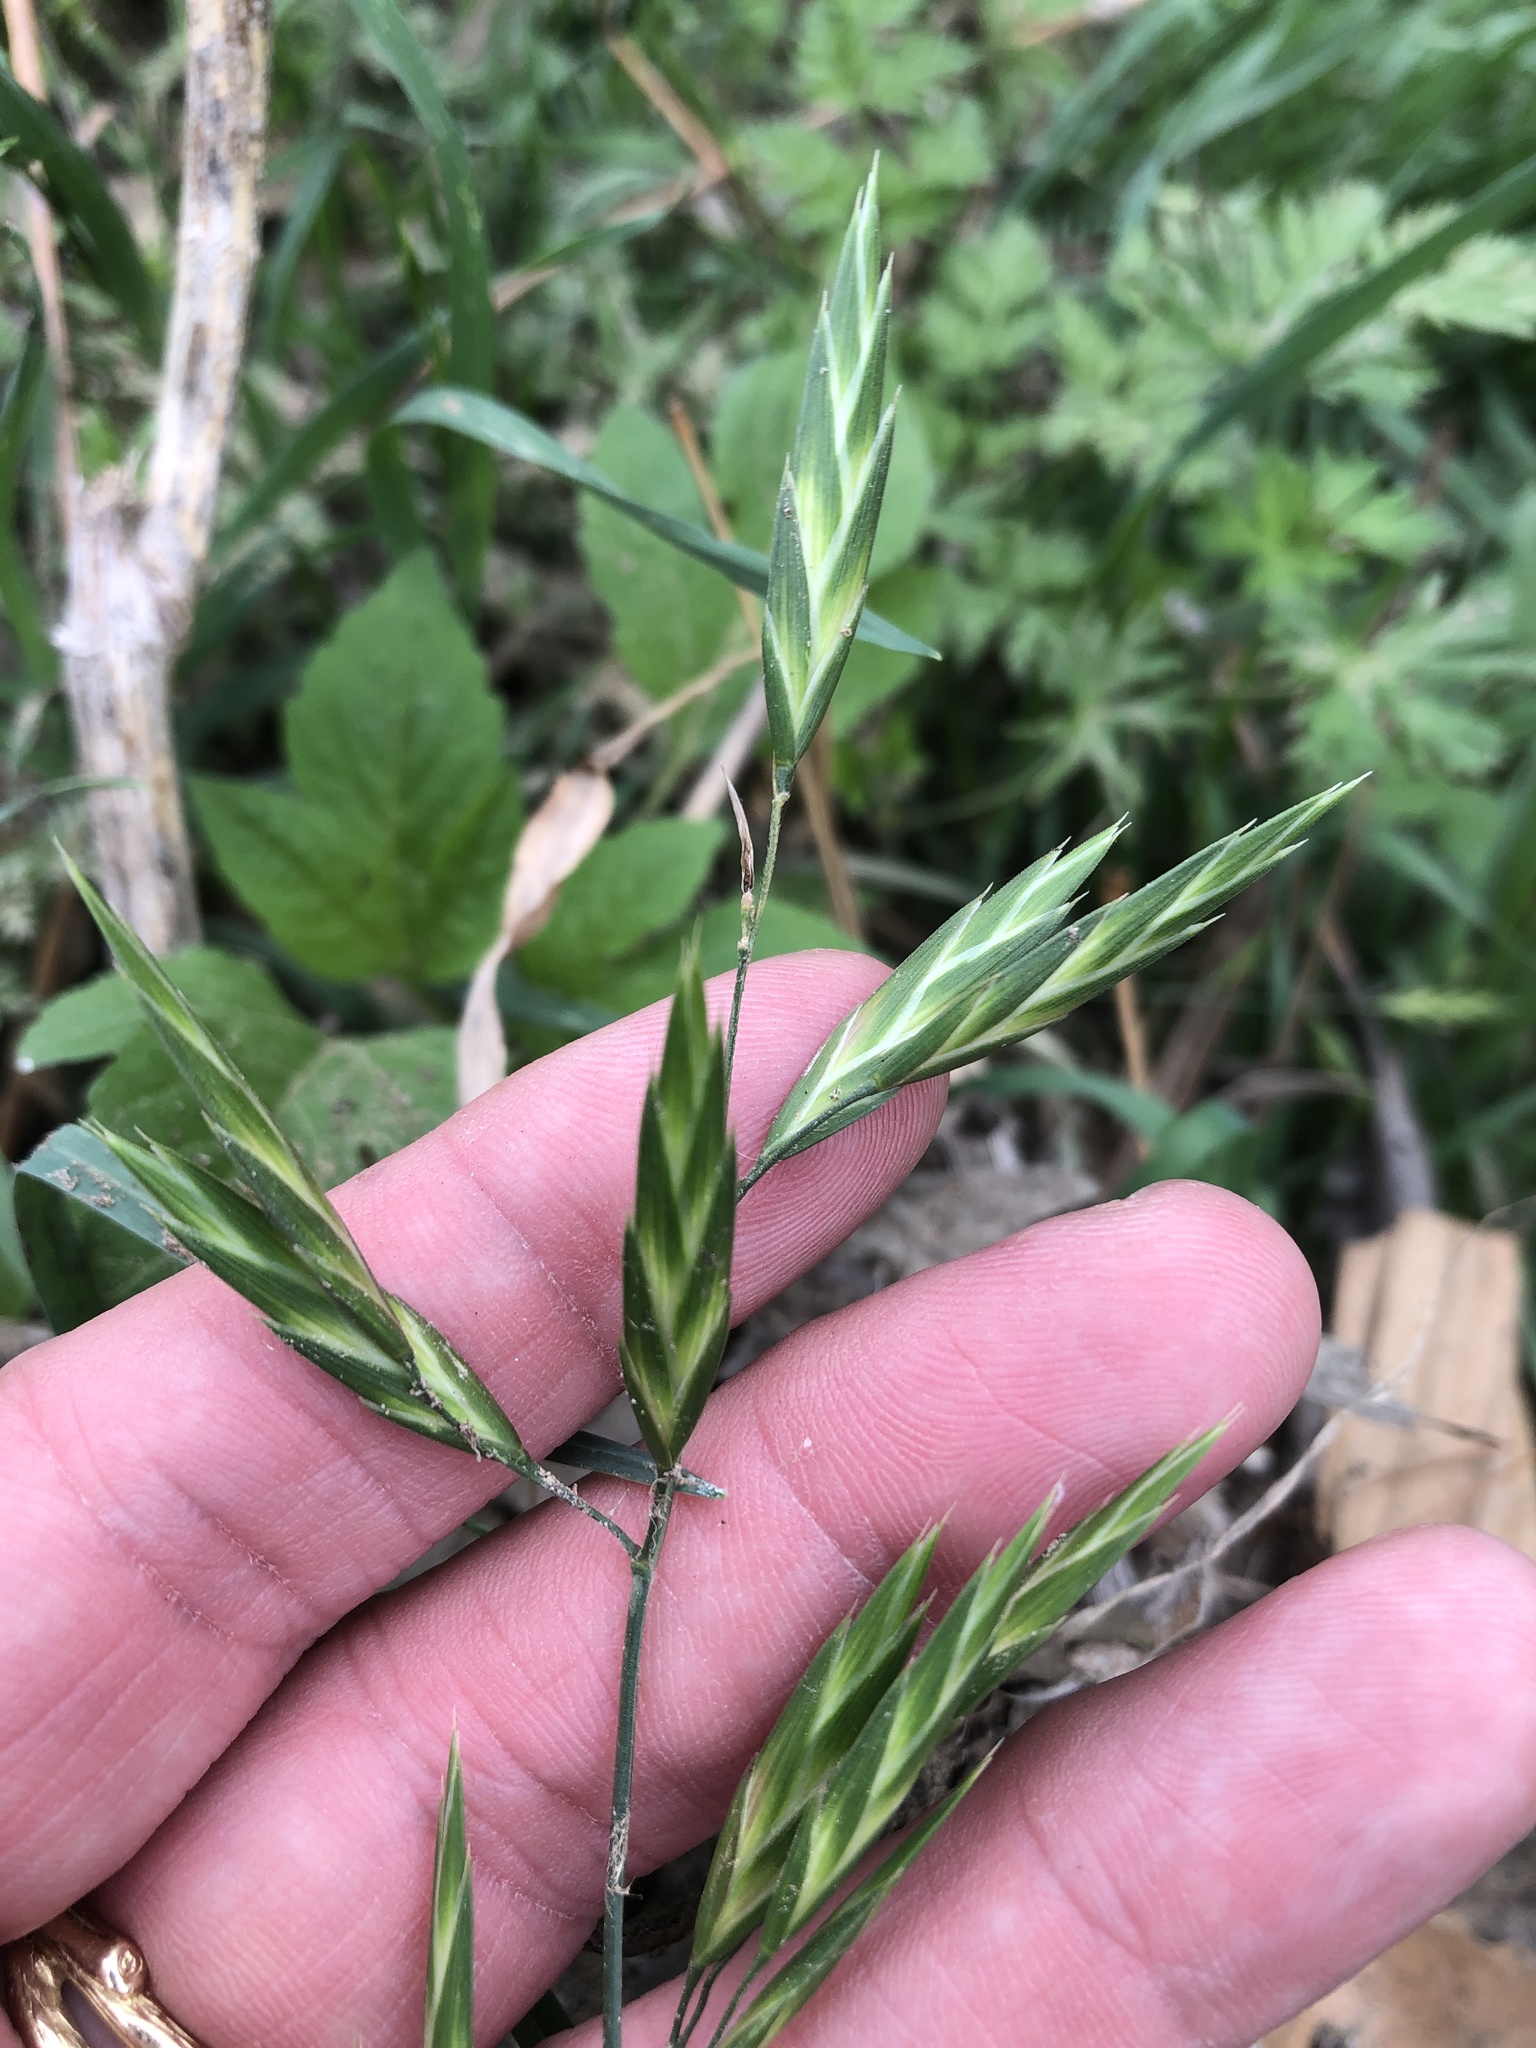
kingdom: Plantae
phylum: Tracheophyta
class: Liliopsida
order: Poales
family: Poaceae
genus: Bromus
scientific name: Bromus catharticus
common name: Rescuegrass
